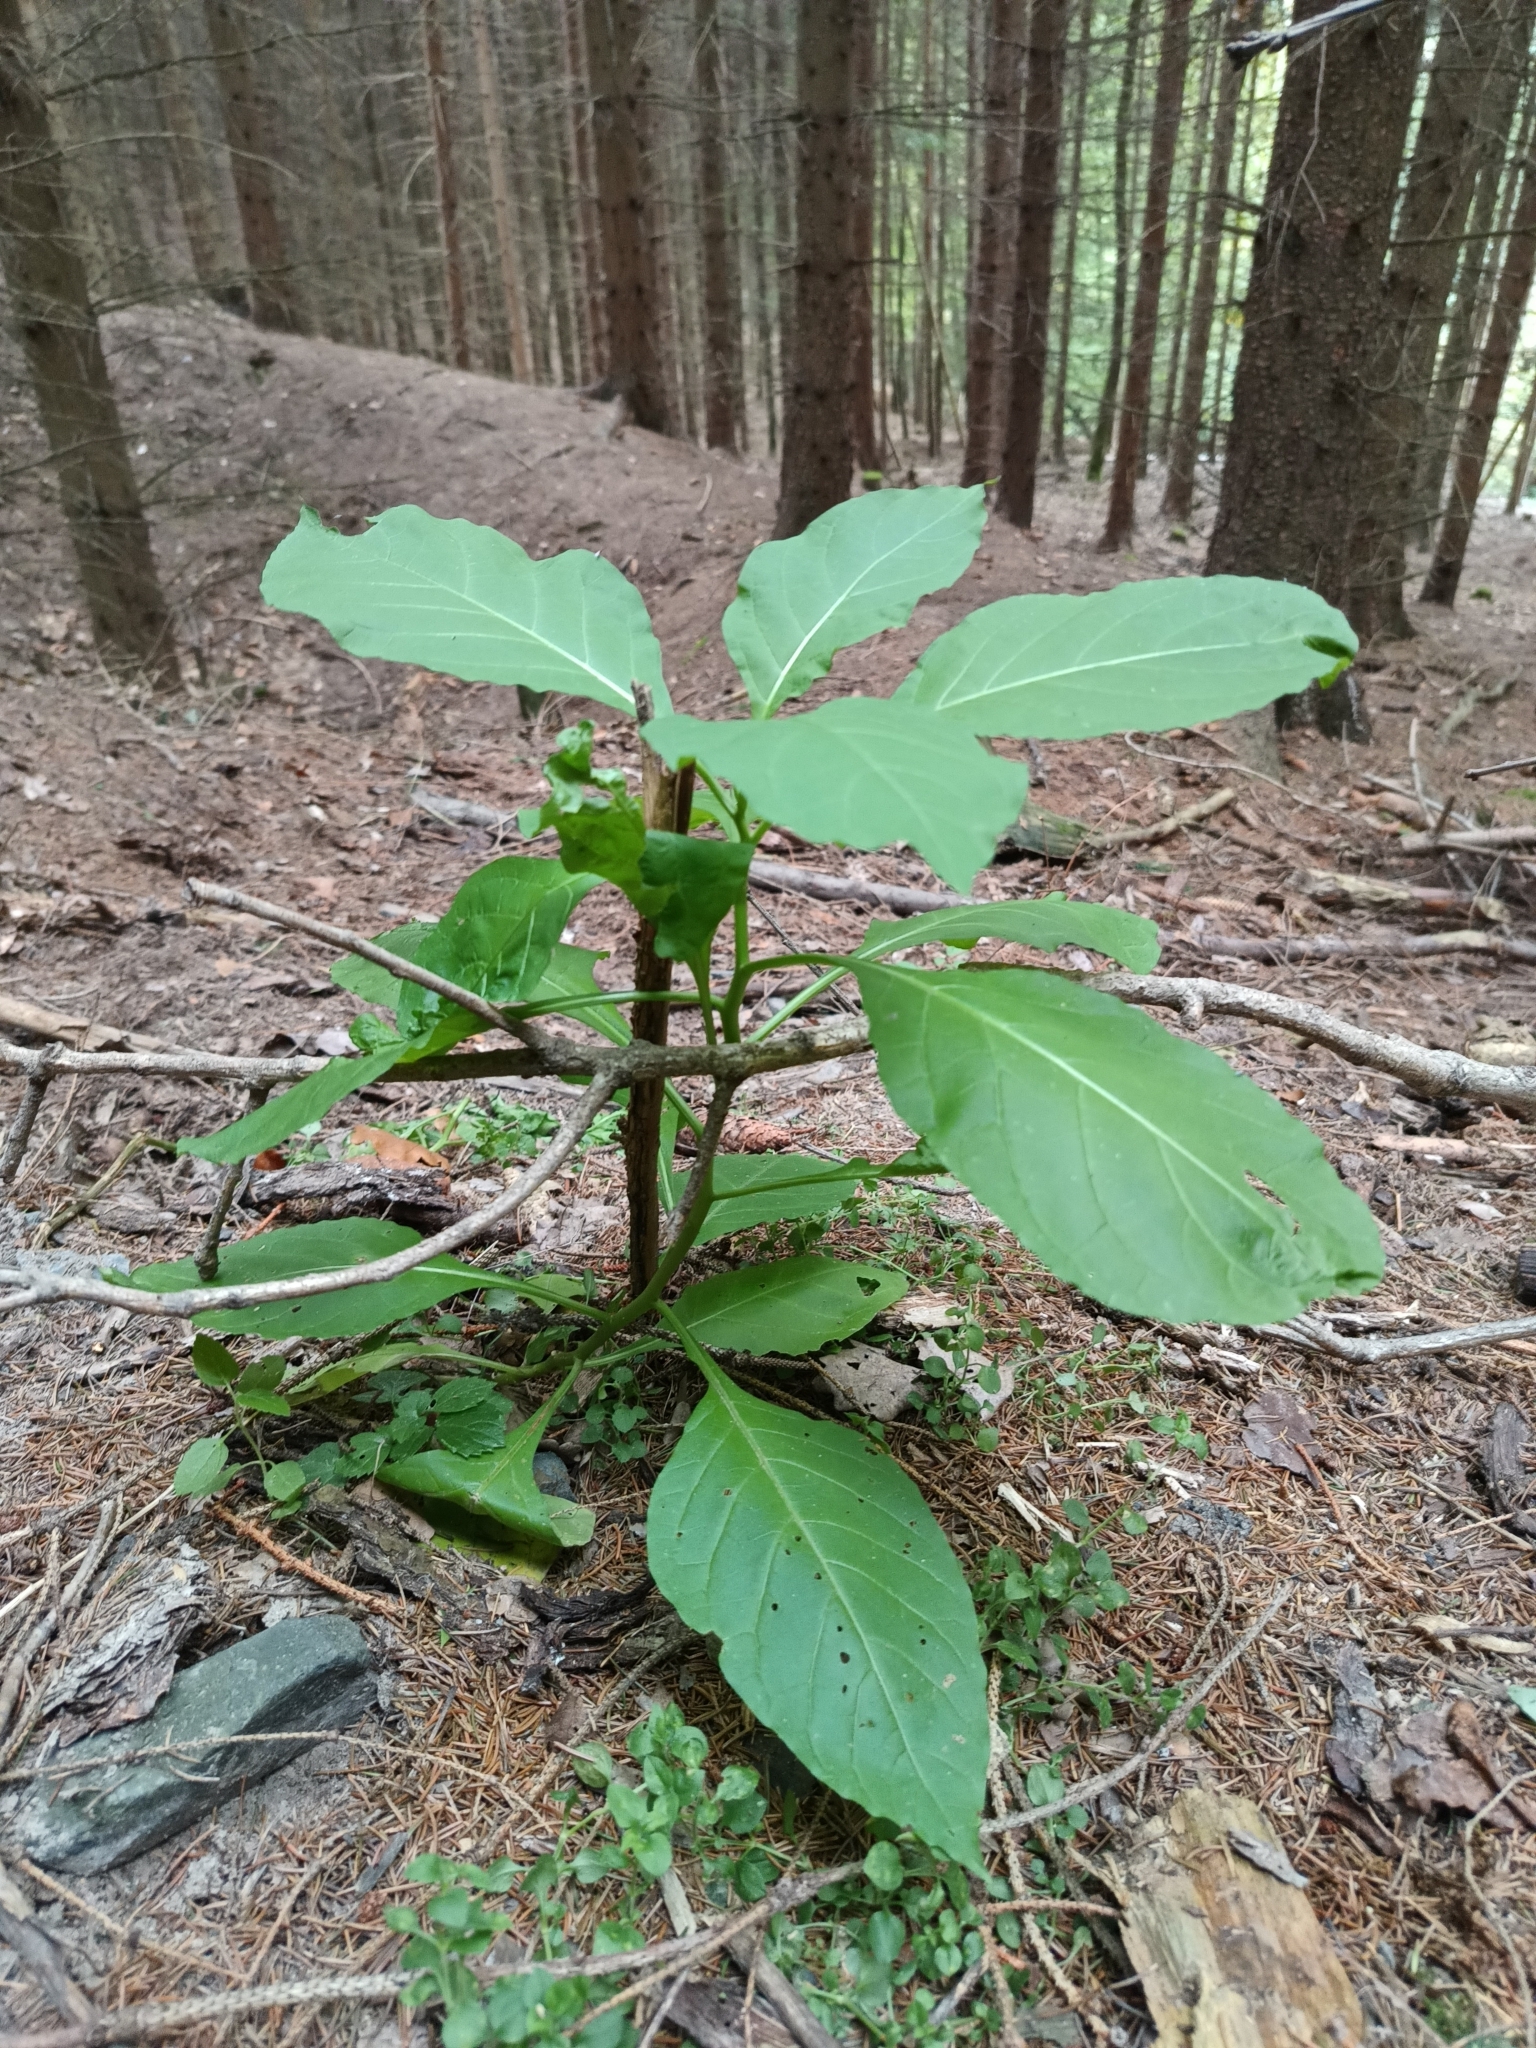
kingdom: Plantae
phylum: Tracheophyta
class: Magnoliopsida
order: Solanales
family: Solanaceae
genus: Atropa
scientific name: Atropa belladonna
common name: Deadly nightshade
